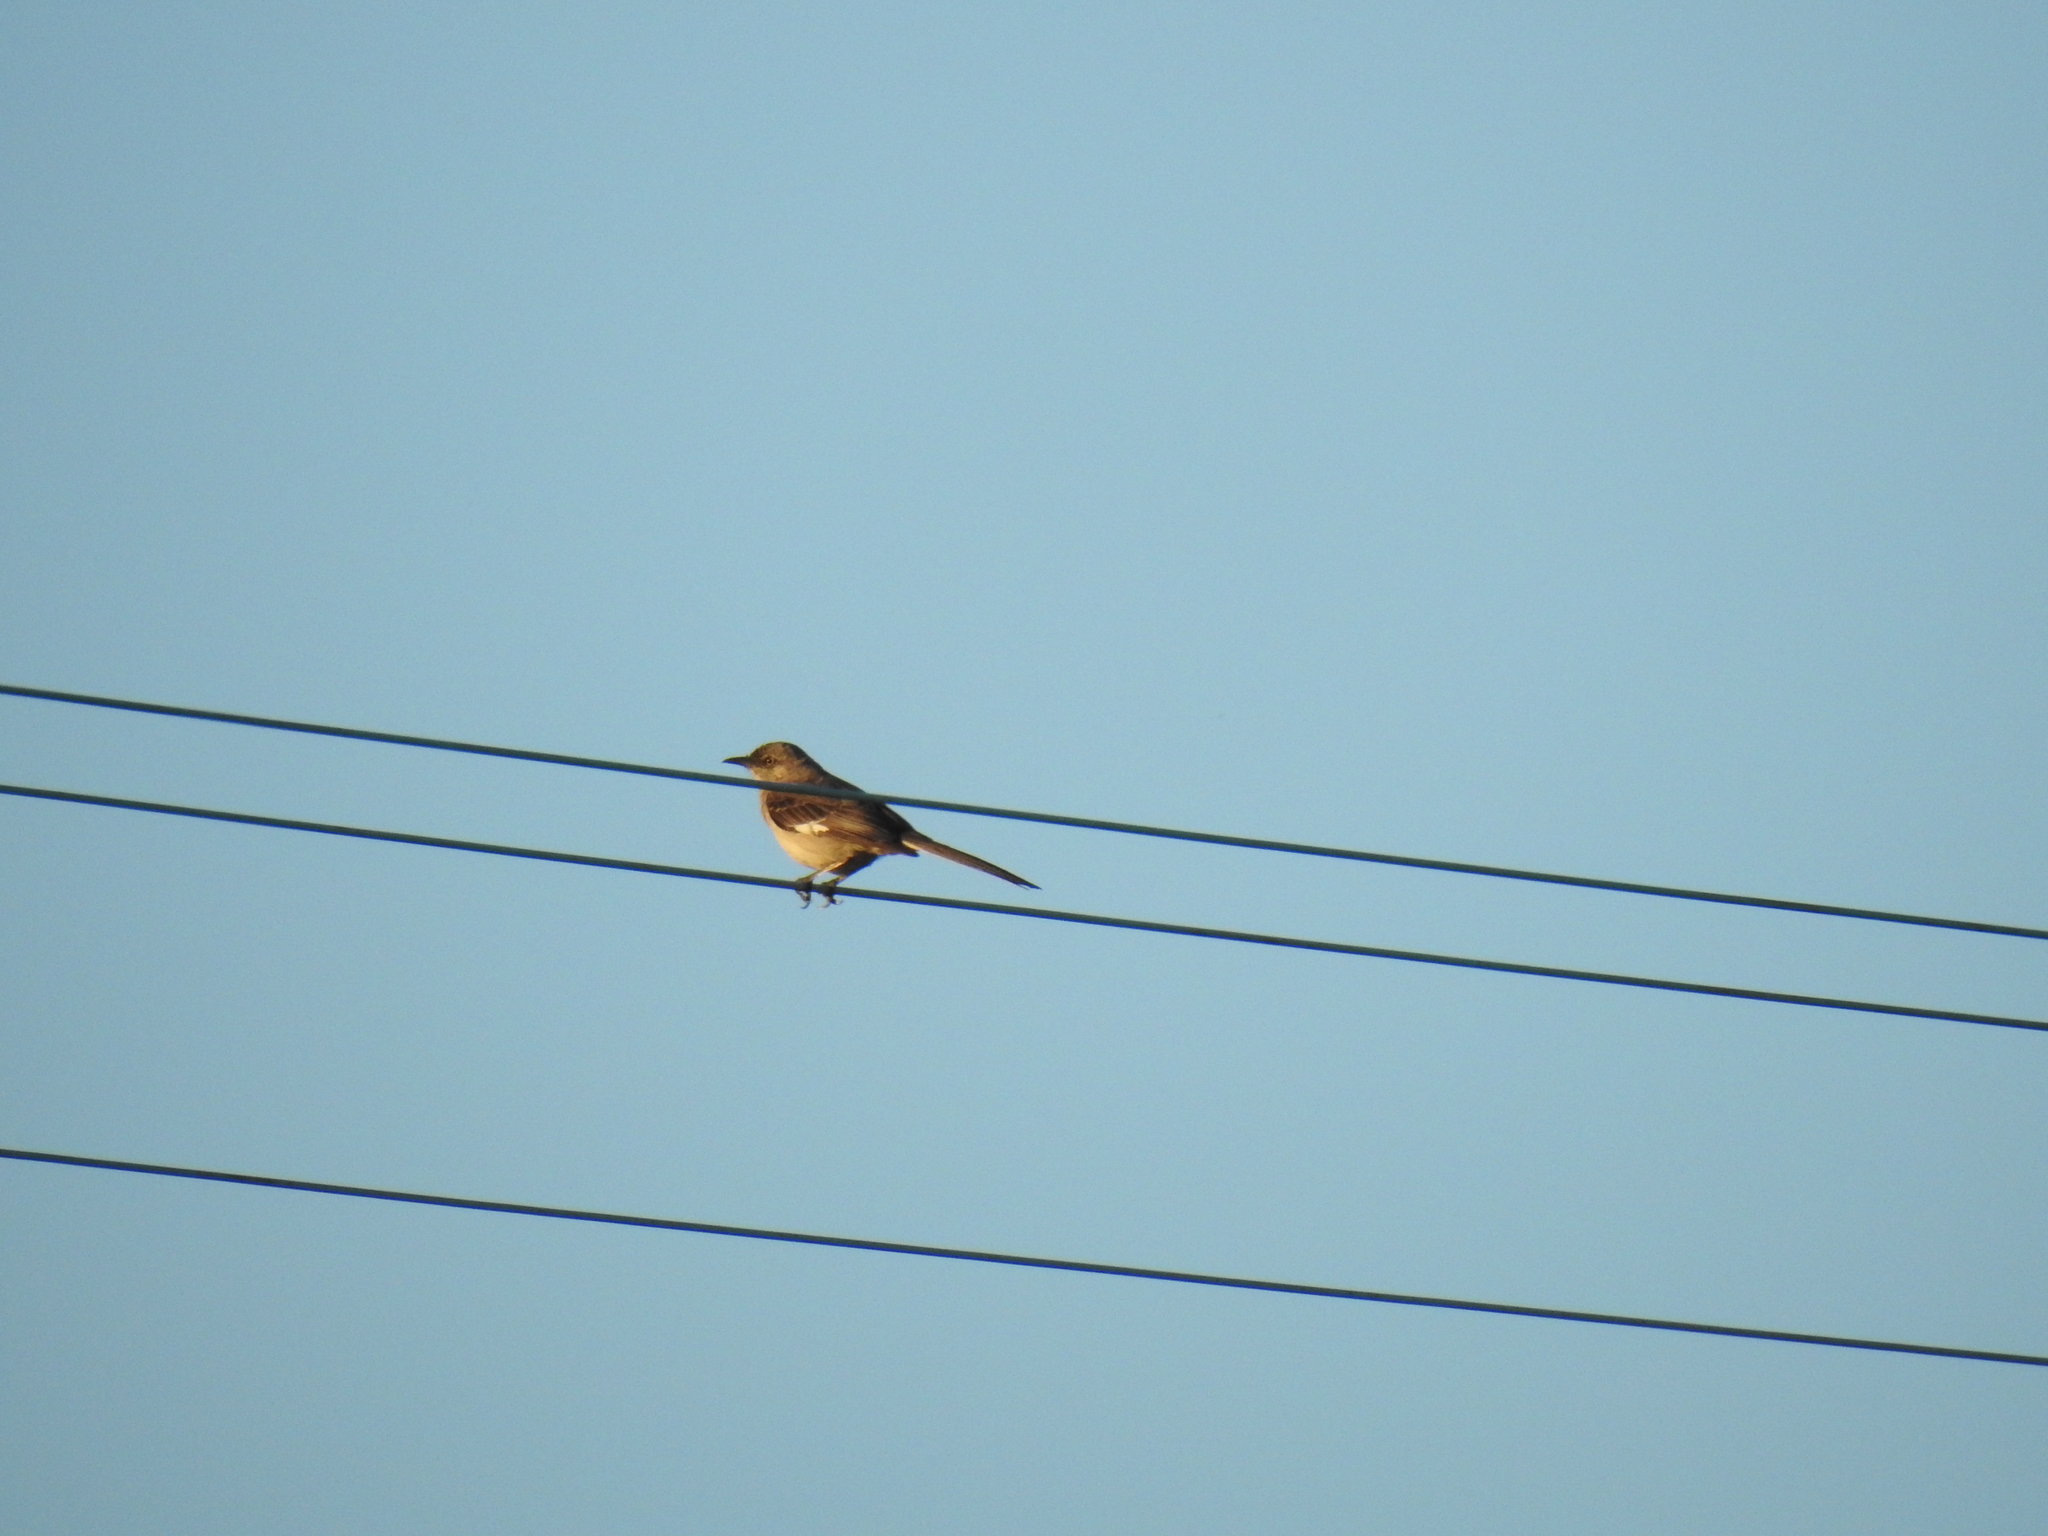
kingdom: Animalia
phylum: Chordata
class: Aves
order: Passeriformes
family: Mimidae
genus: Mimus
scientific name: Mimus polyglottos
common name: Northern mockingbird
